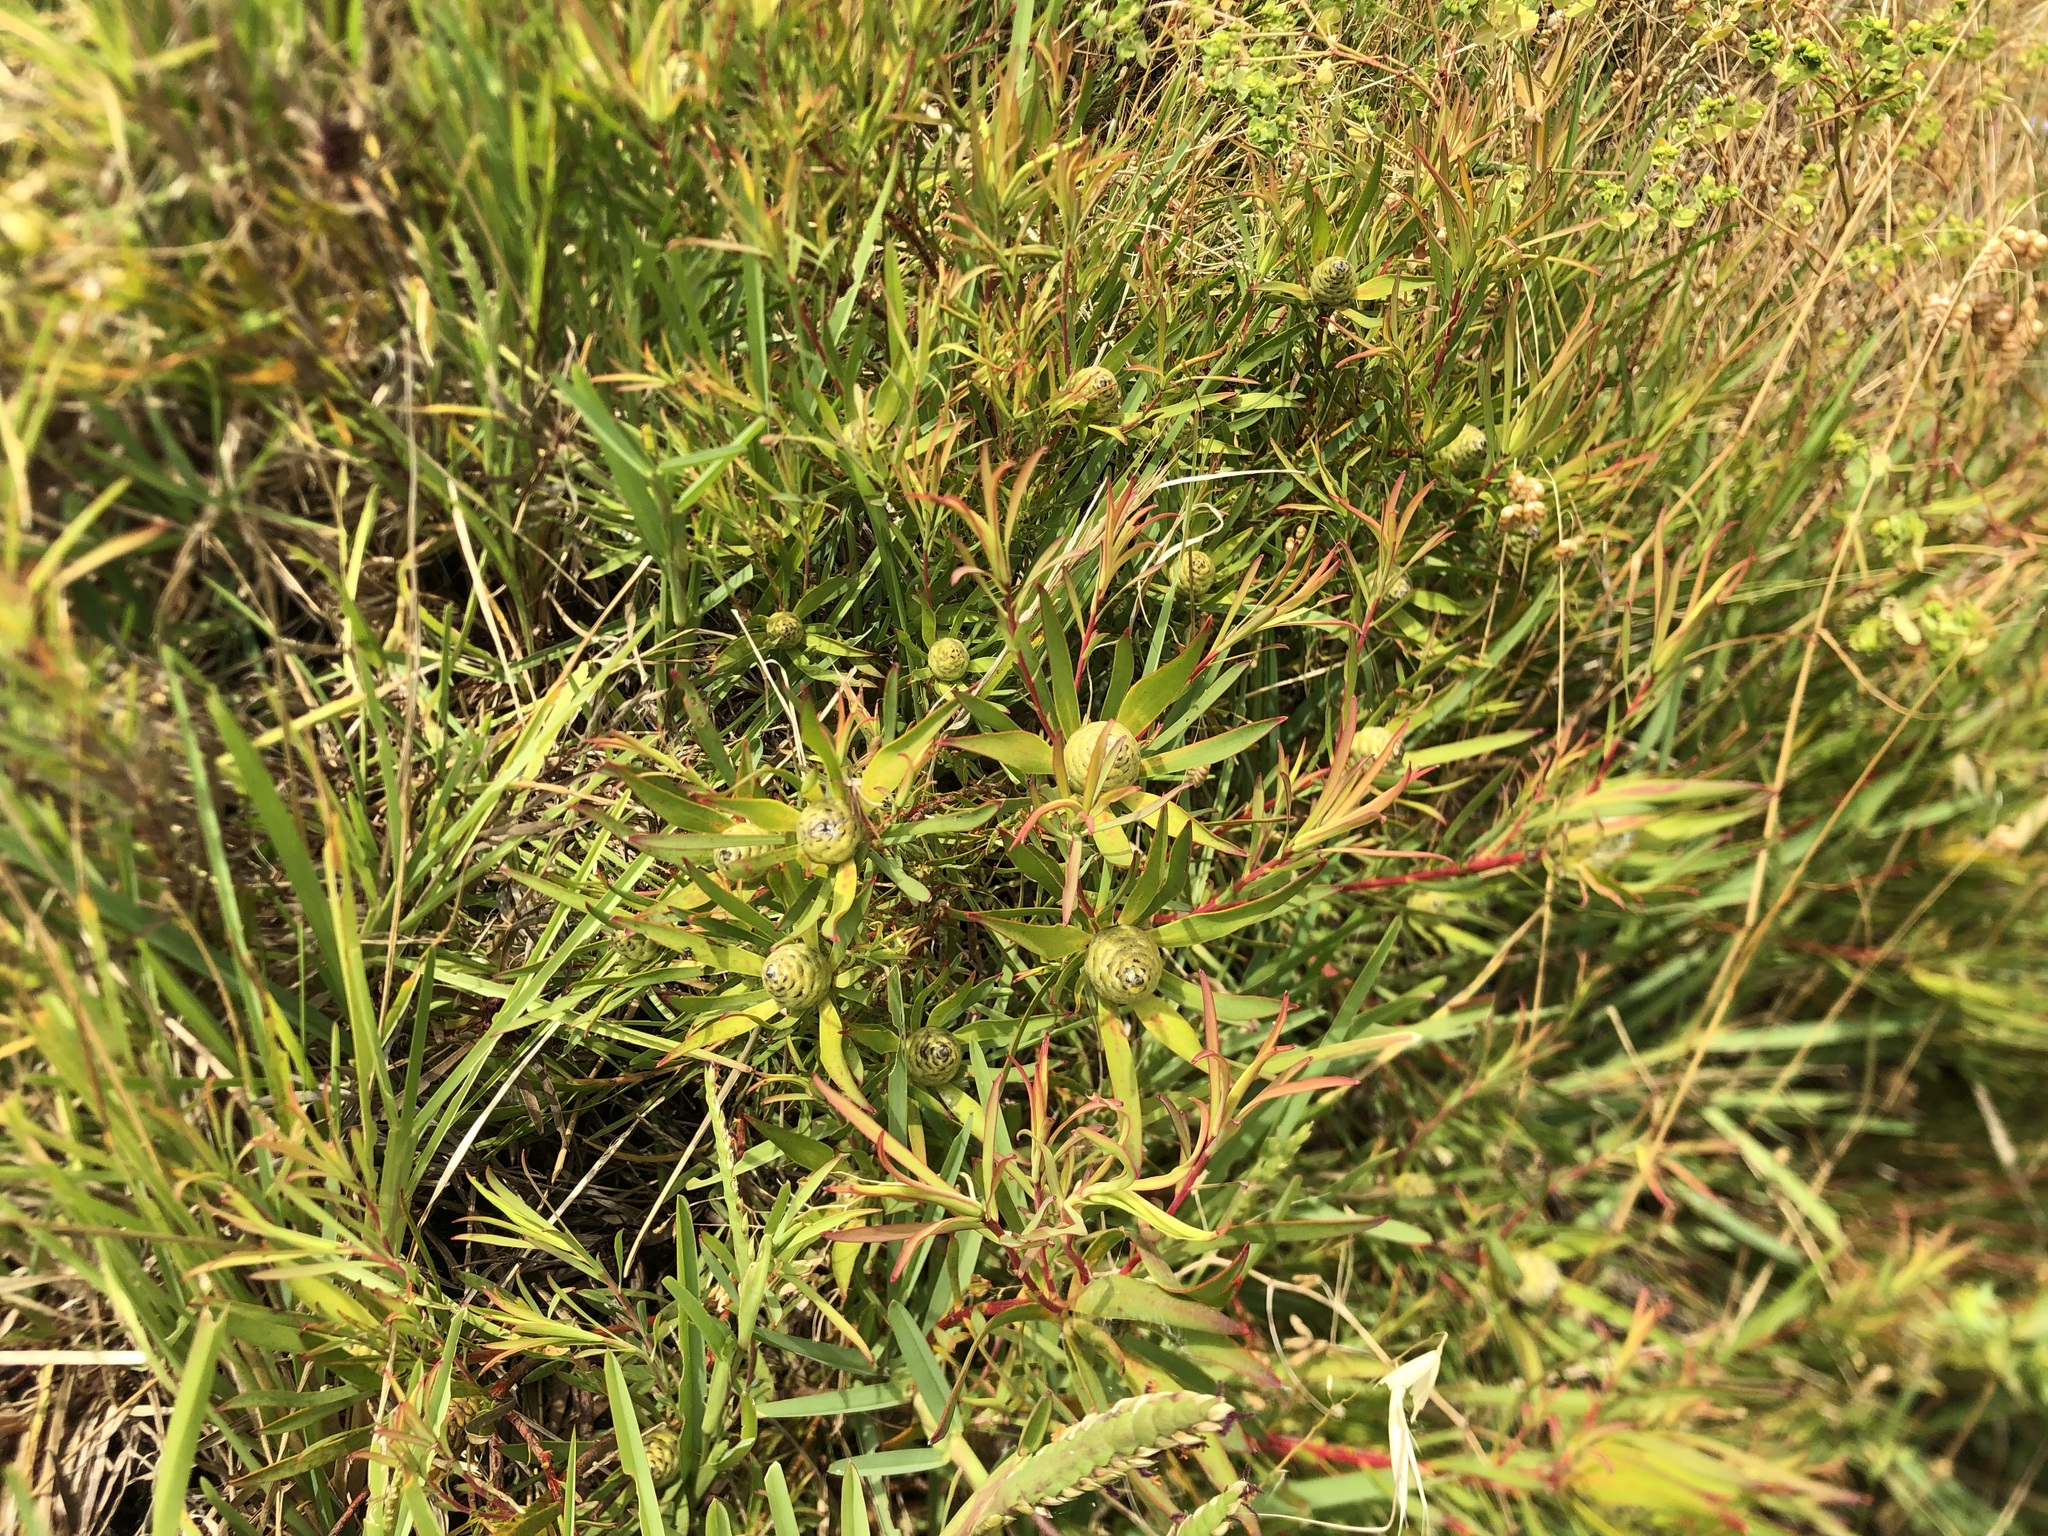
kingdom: Plantae
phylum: Tracheophyta
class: Magnoliopsida
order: Proteales
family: Proteaceae
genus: Leucadendron
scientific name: Leucadendron salignum
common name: Common sunshine conebush
